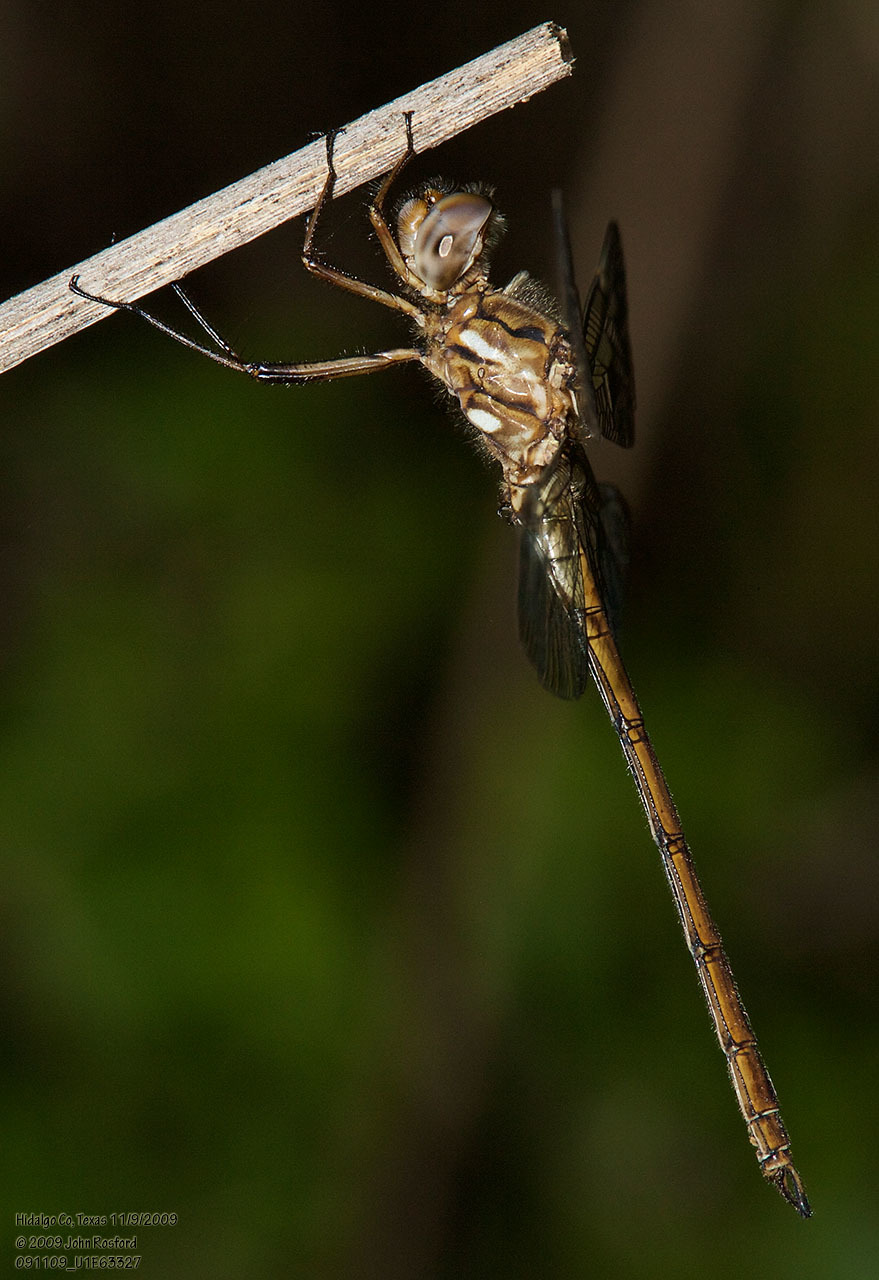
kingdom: Animalia
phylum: Arthropoda
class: Insecta
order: Odonata
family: Libellulidae
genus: Macrothemis
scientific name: Macrothemis inacuta
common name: Straw-colored sylph
